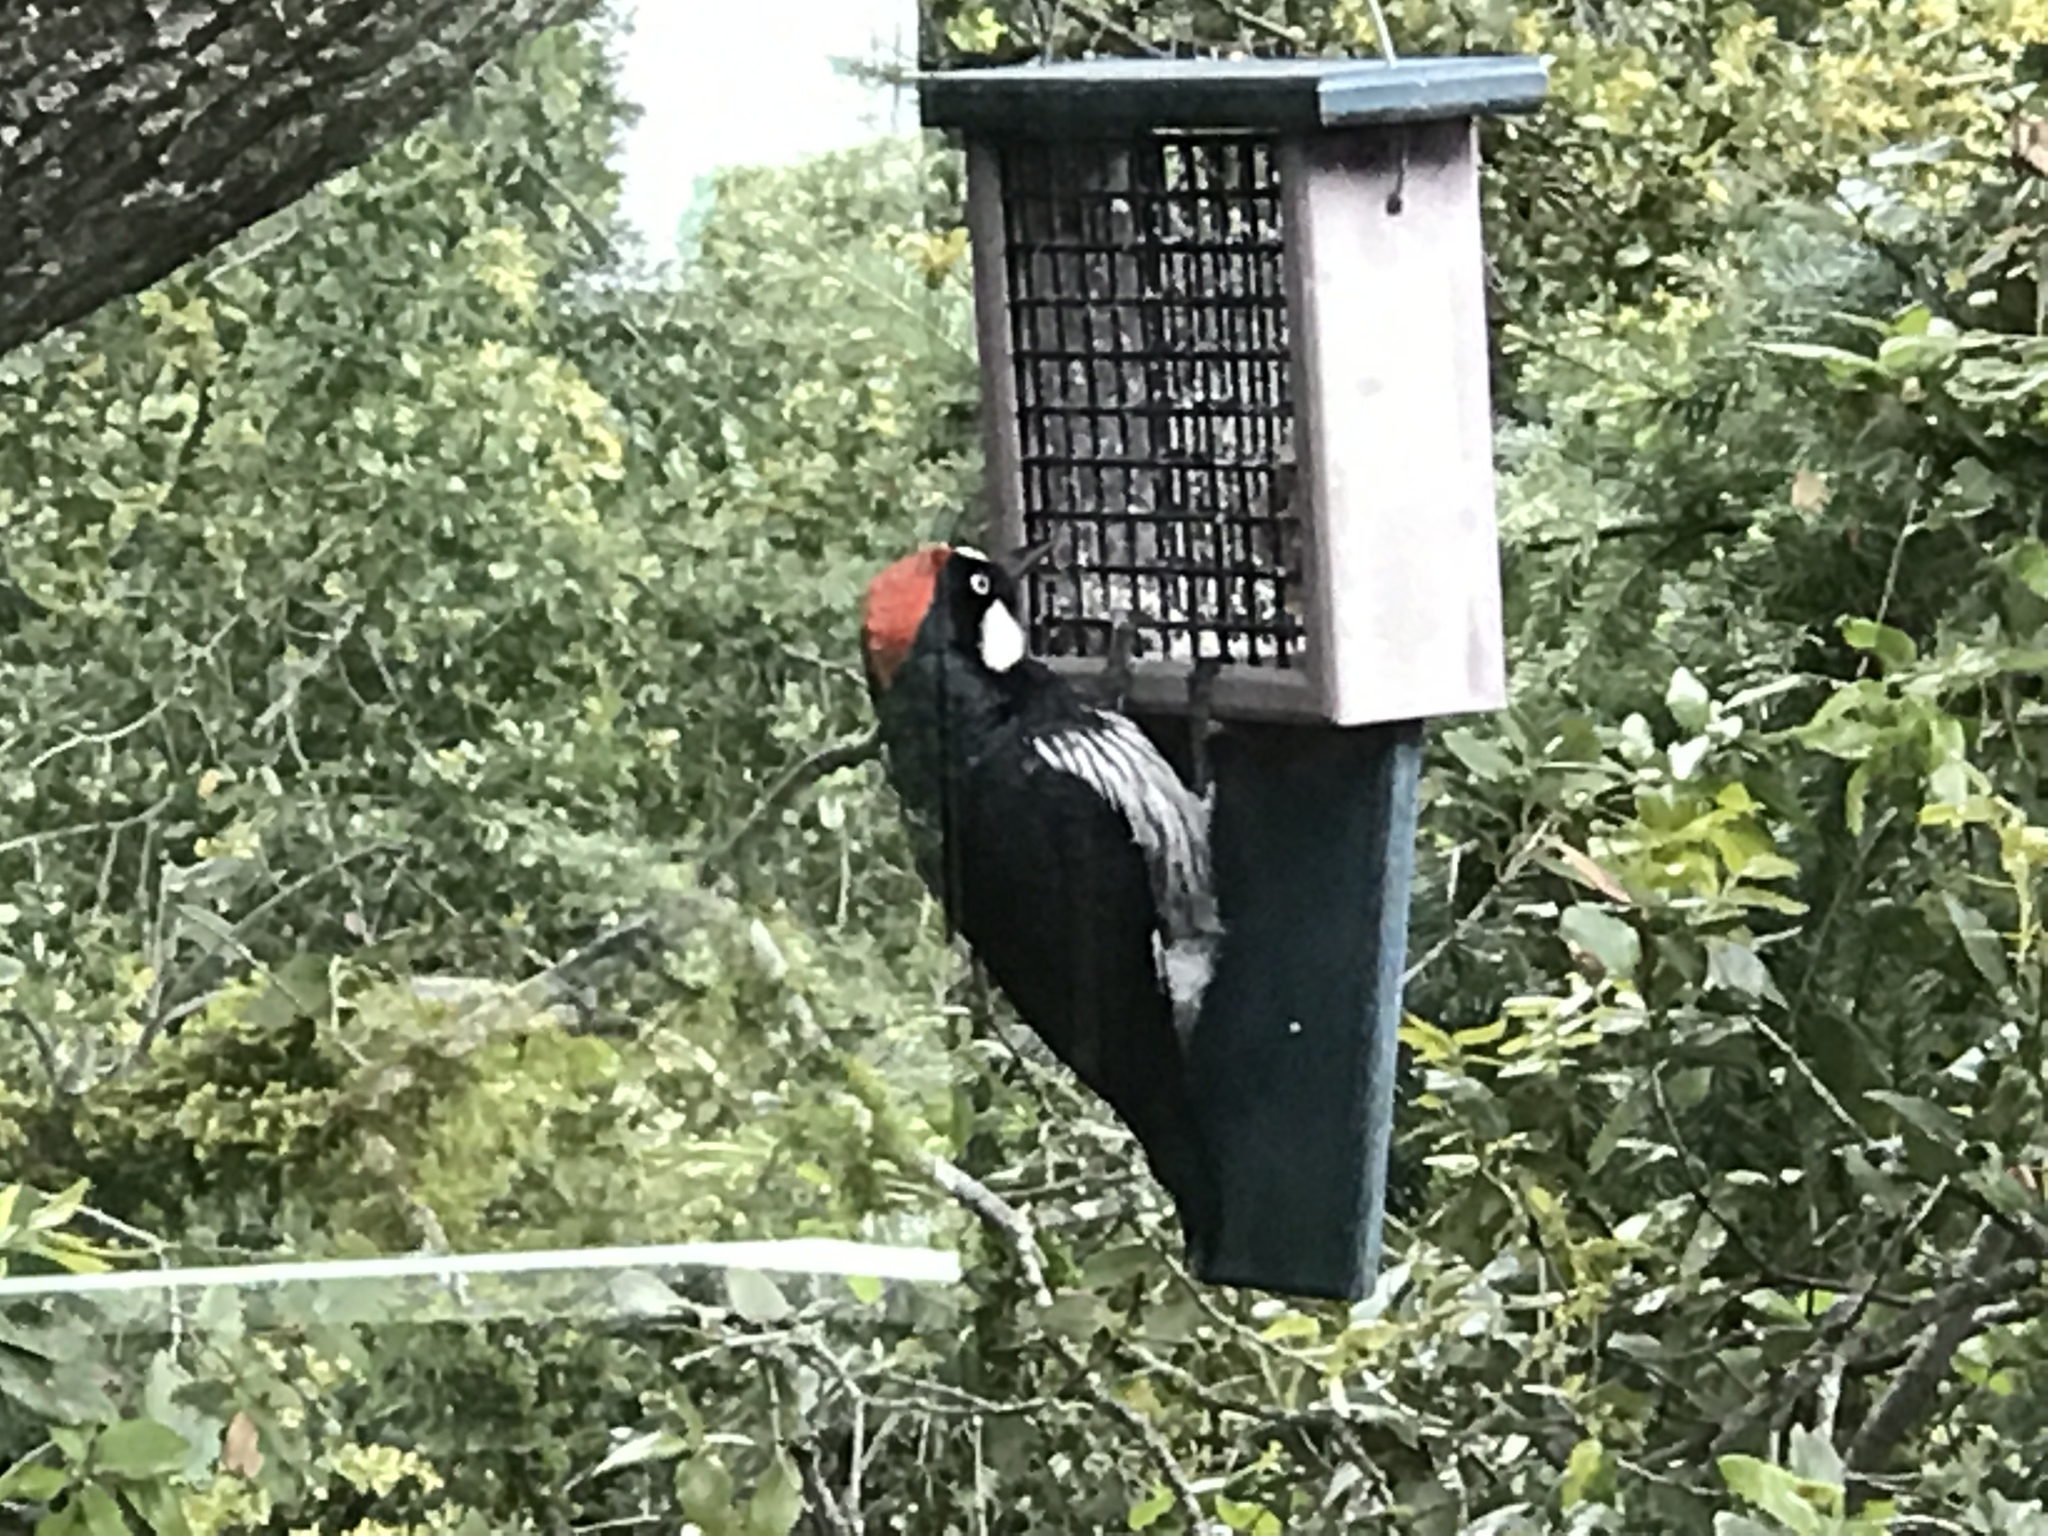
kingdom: Animalia
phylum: Chordata
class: Aves
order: Piciformes
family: Picidae
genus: Melanerpes
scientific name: Melanerpes formicivorus
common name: Acorn woodpecker
